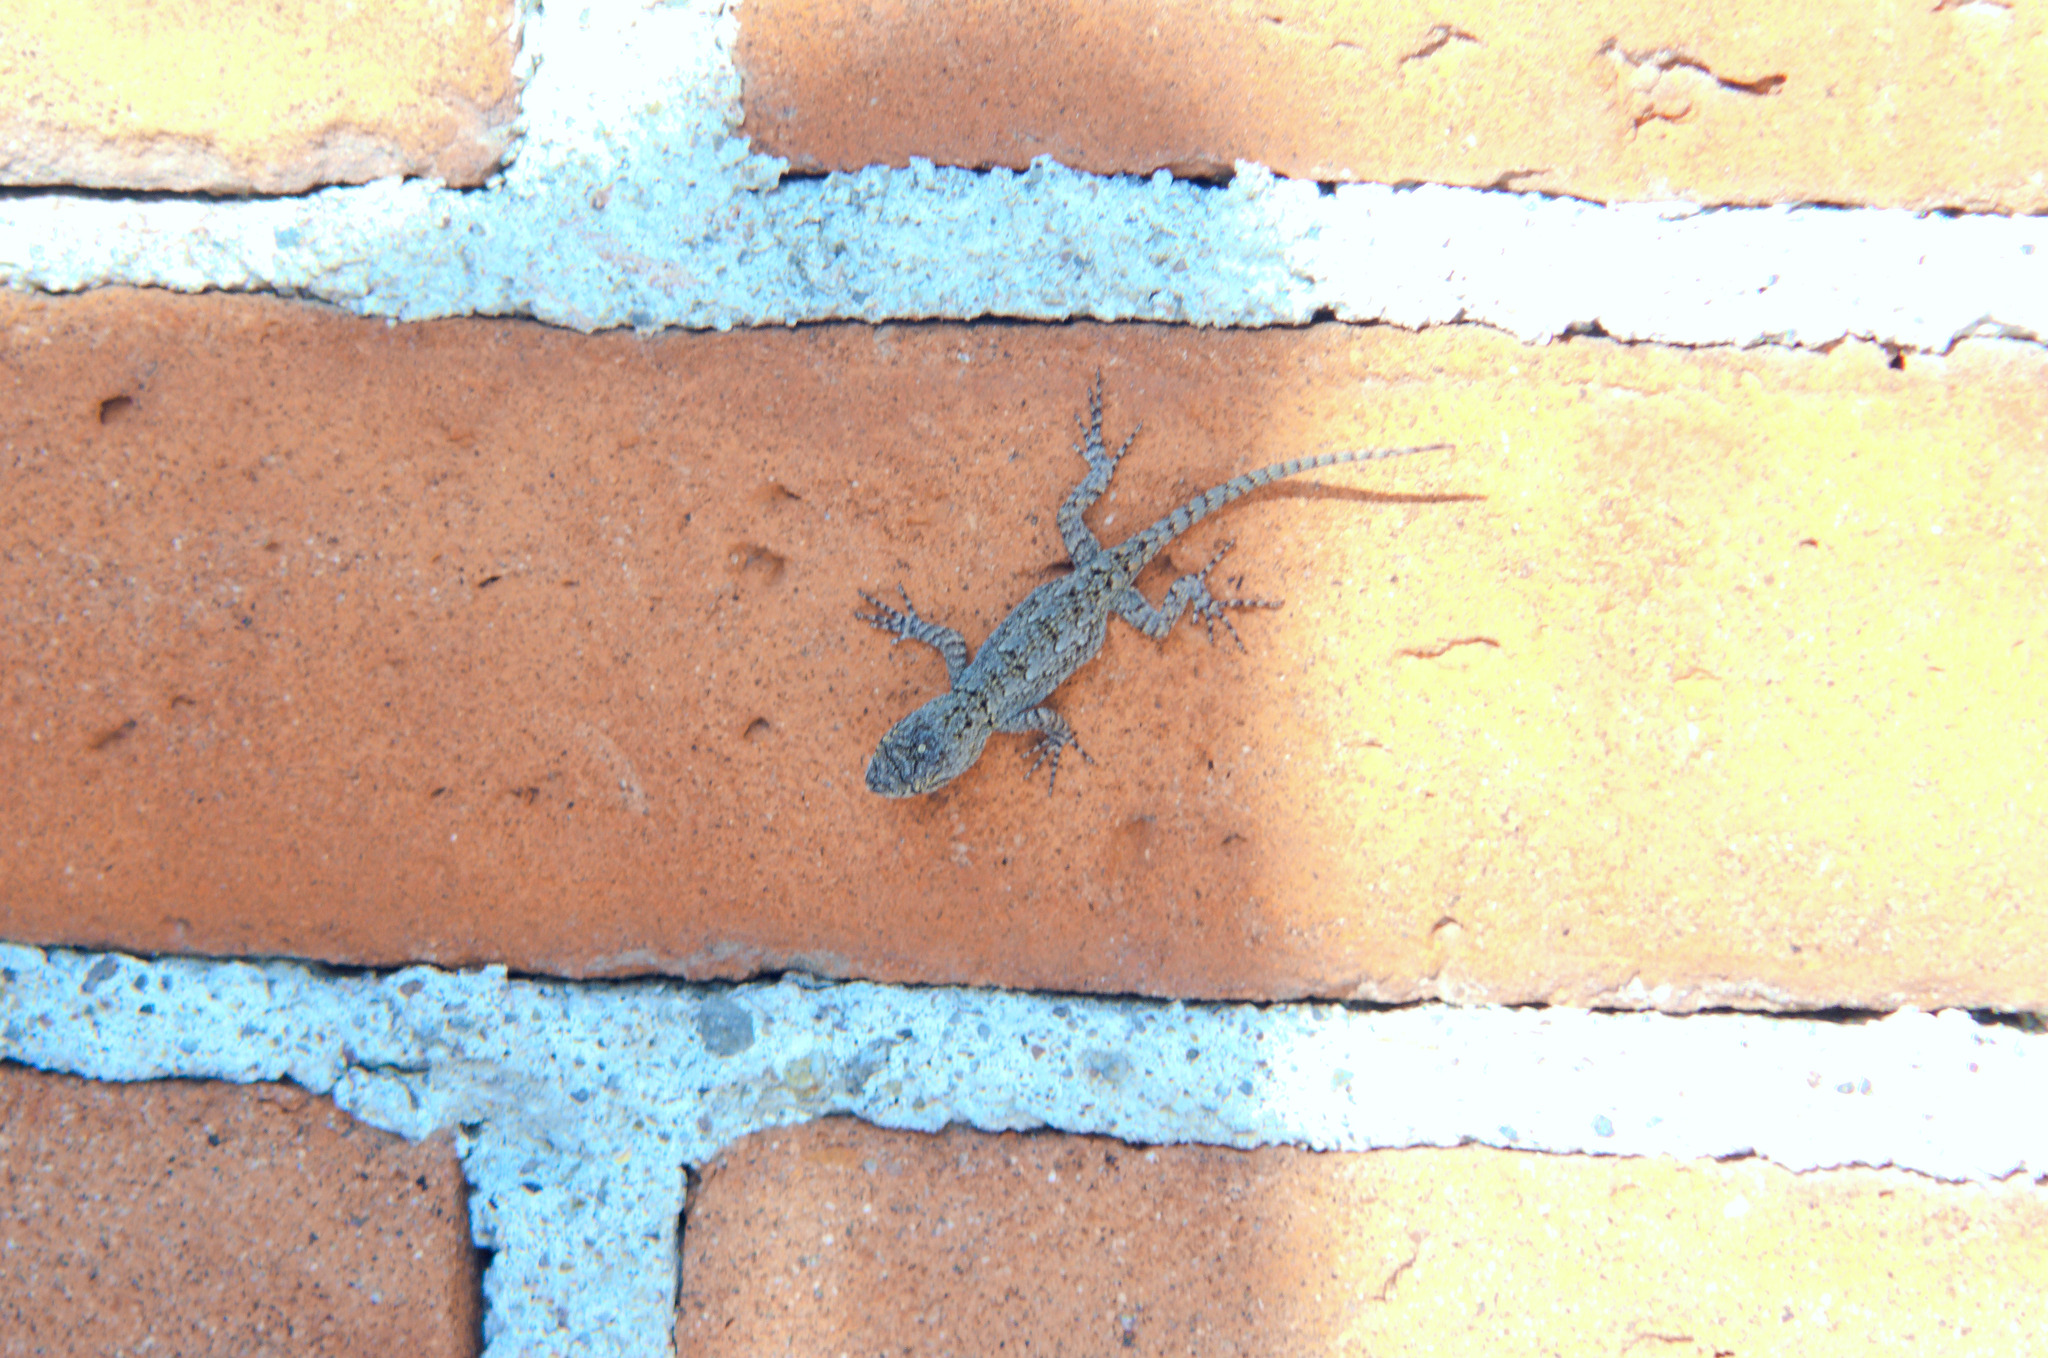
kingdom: Animalia
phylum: Chordata
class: Squamata
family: Phrynosomatidae
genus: Sceloporus
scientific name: Sceloporus grammicus
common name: Mesquite lizard
